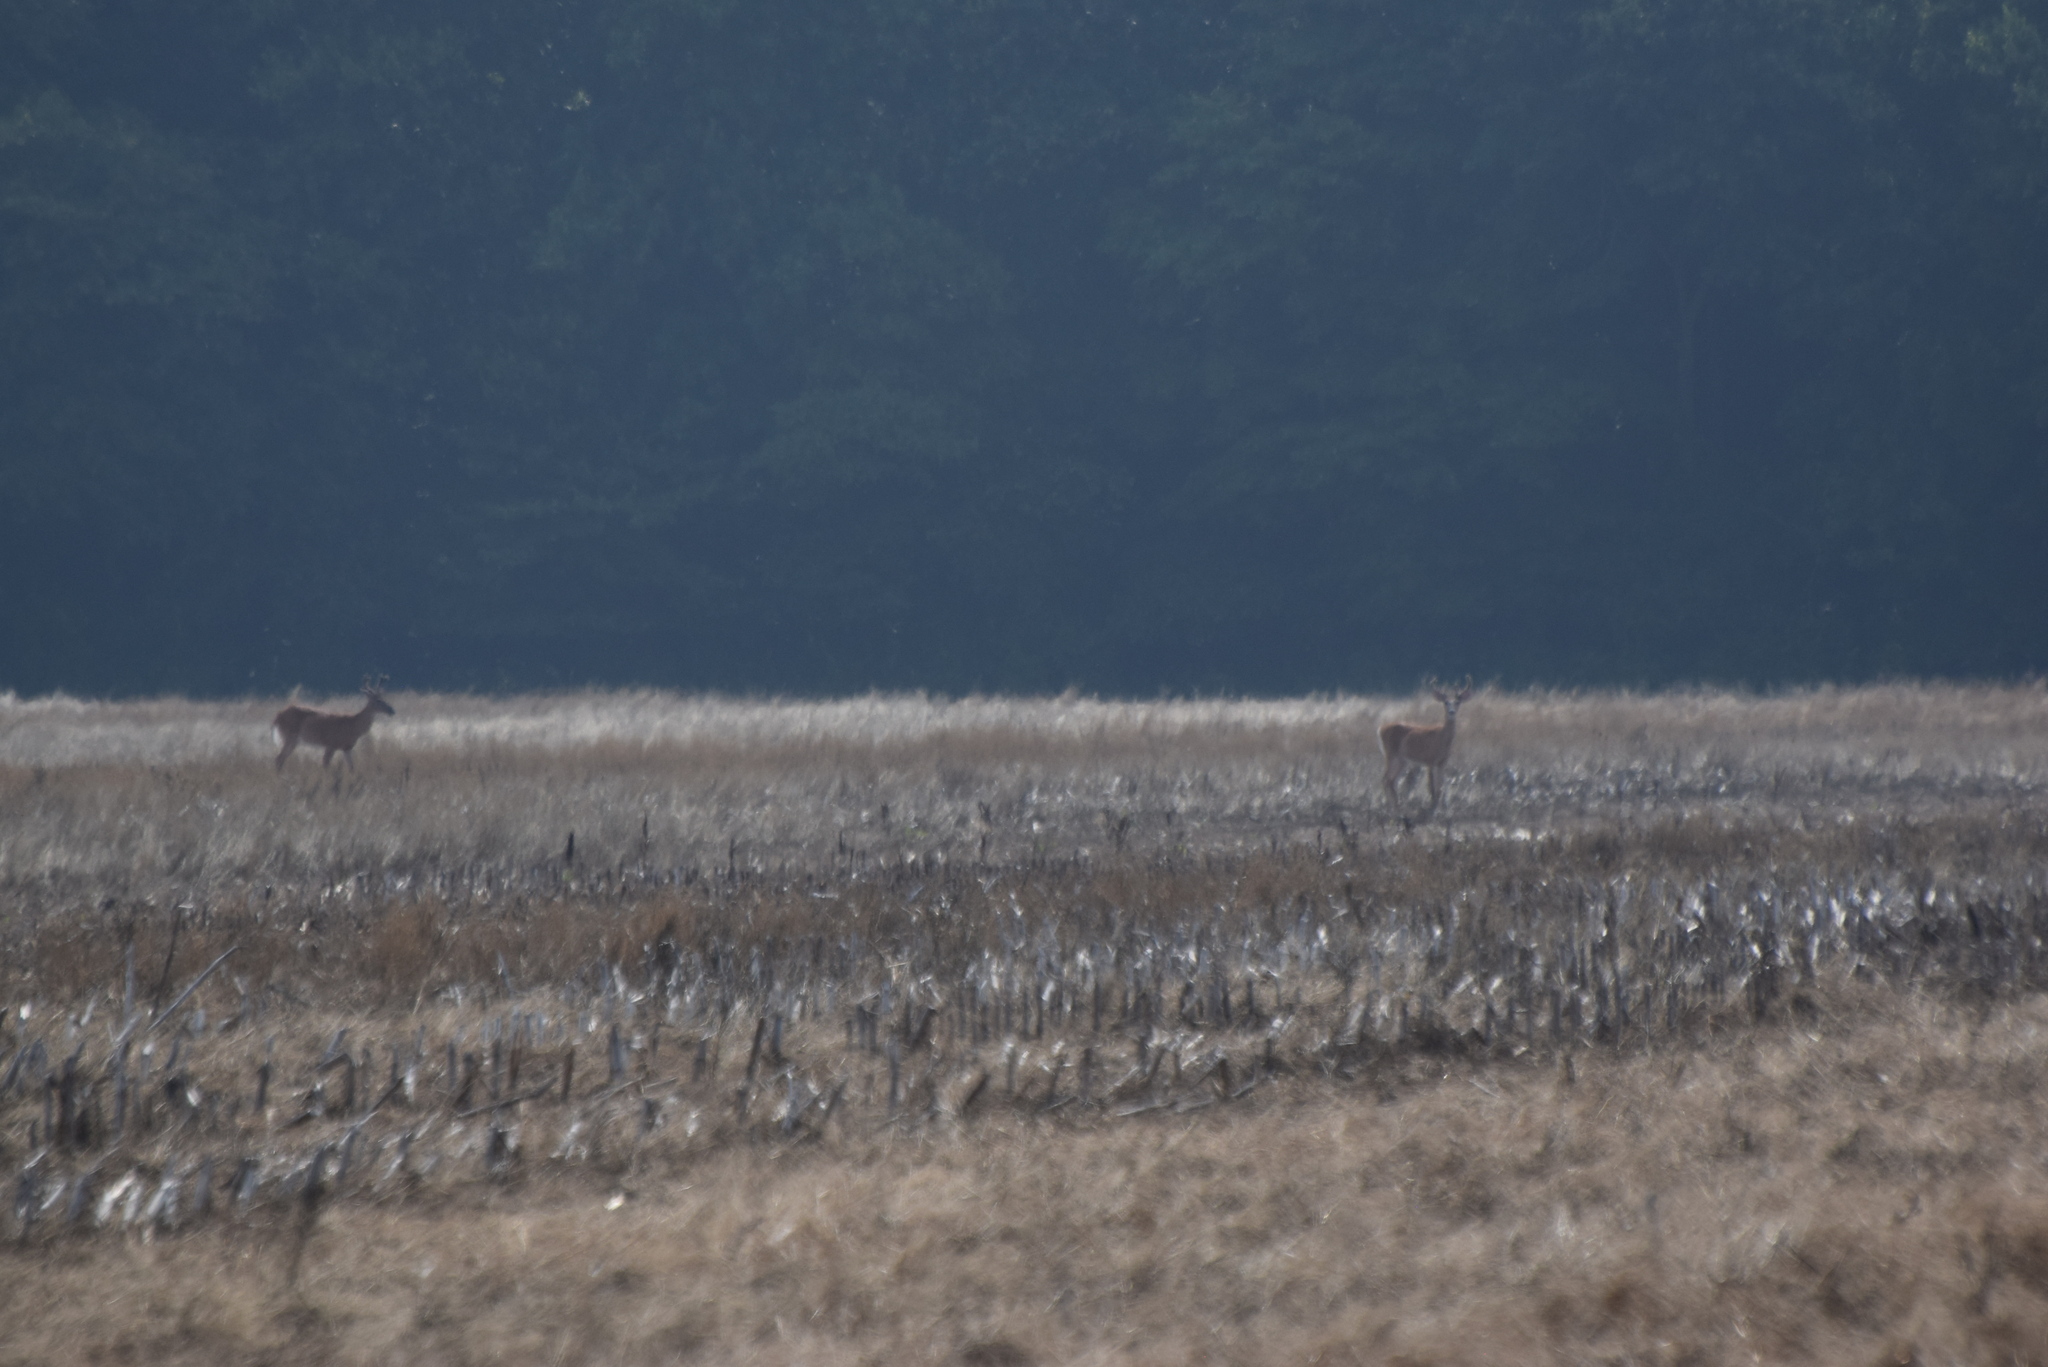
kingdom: Animalia
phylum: Chordata
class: Mammalia
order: Artiodactyla
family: Cervidae
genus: Odocoileus
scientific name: Odocoileus virginianus
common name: White-tailed deer
